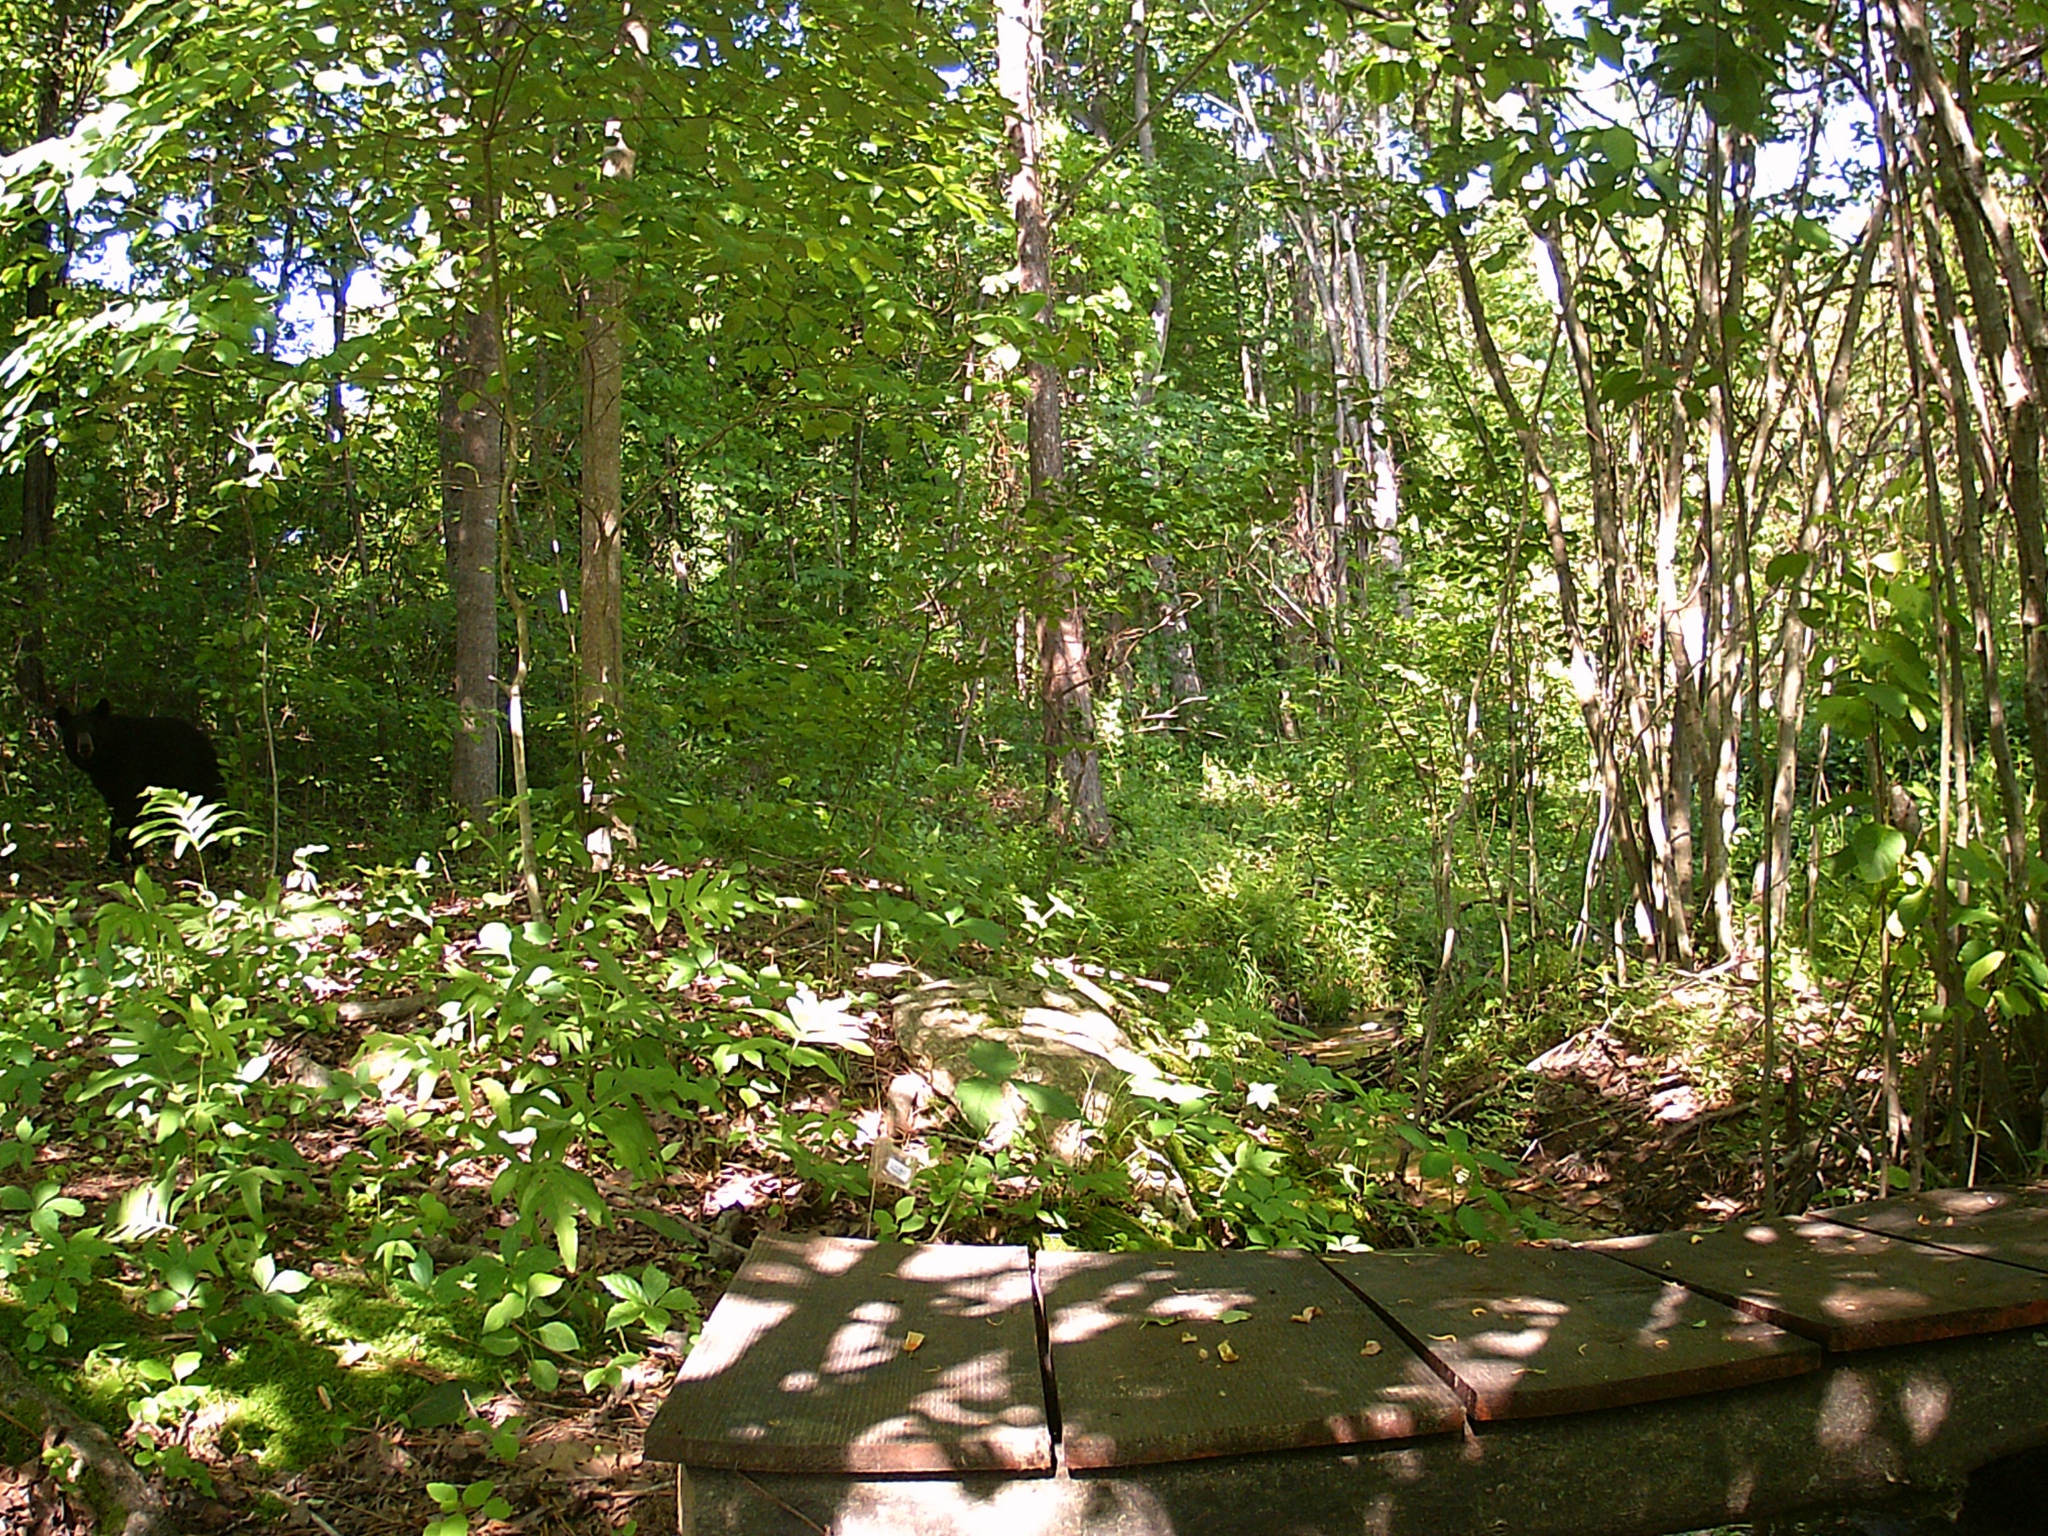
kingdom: Animalia
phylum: Chordata
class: Mammalia
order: Carnivora
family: Ursidae
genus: Ursus
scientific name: Ursus americanus
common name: American black bear
